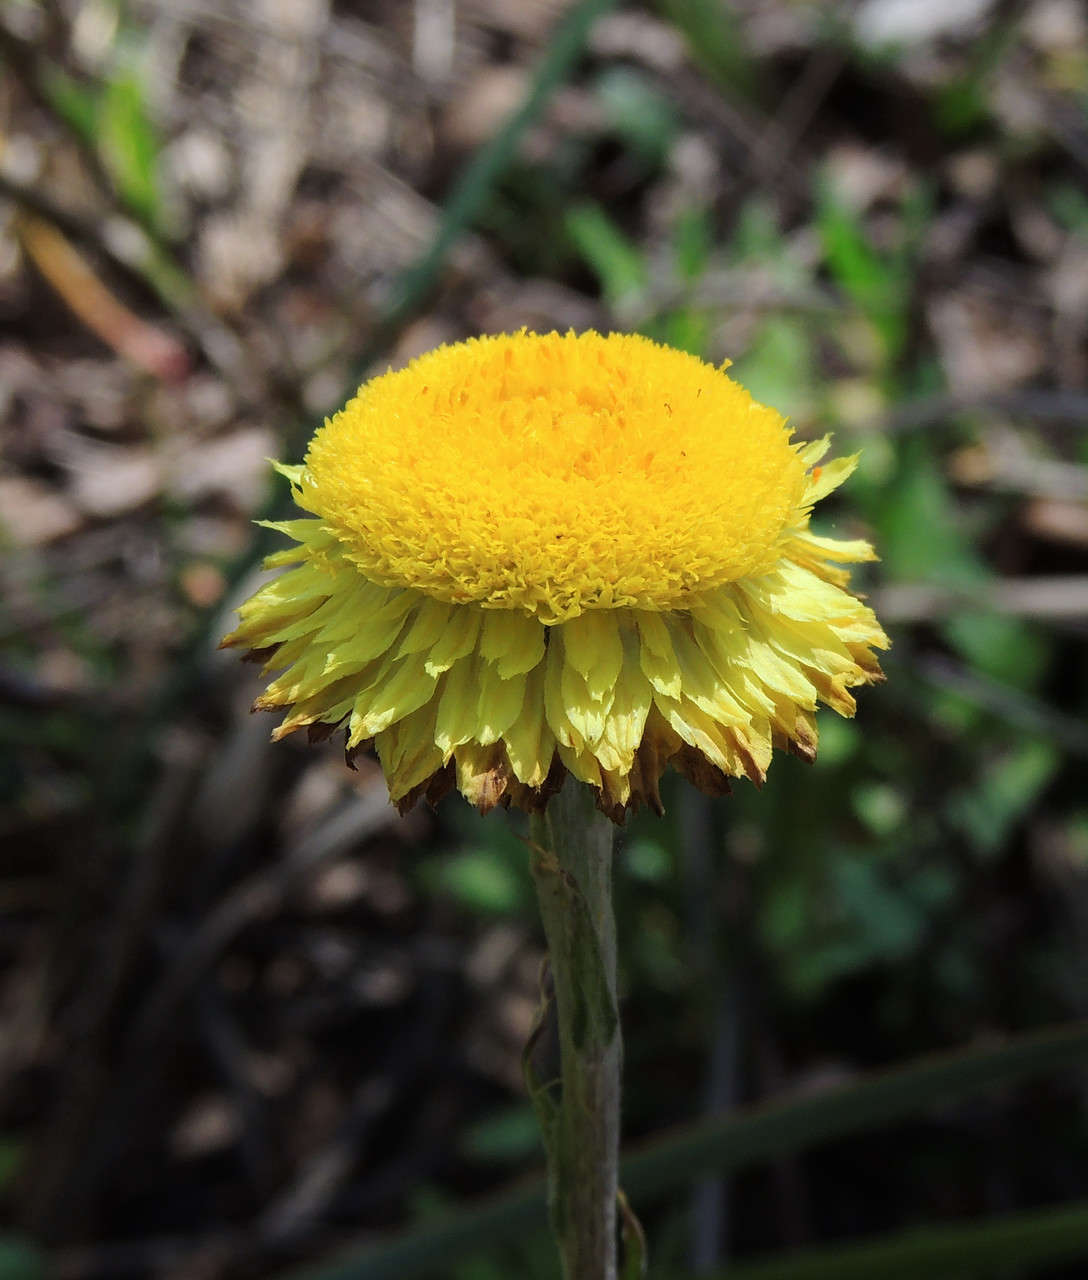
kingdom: Plantae
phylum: Tracheophyta
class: Magnoliopsida
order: Asterales
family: Asteraceae
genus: Coronidium
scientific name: Coronidium scorpioides
